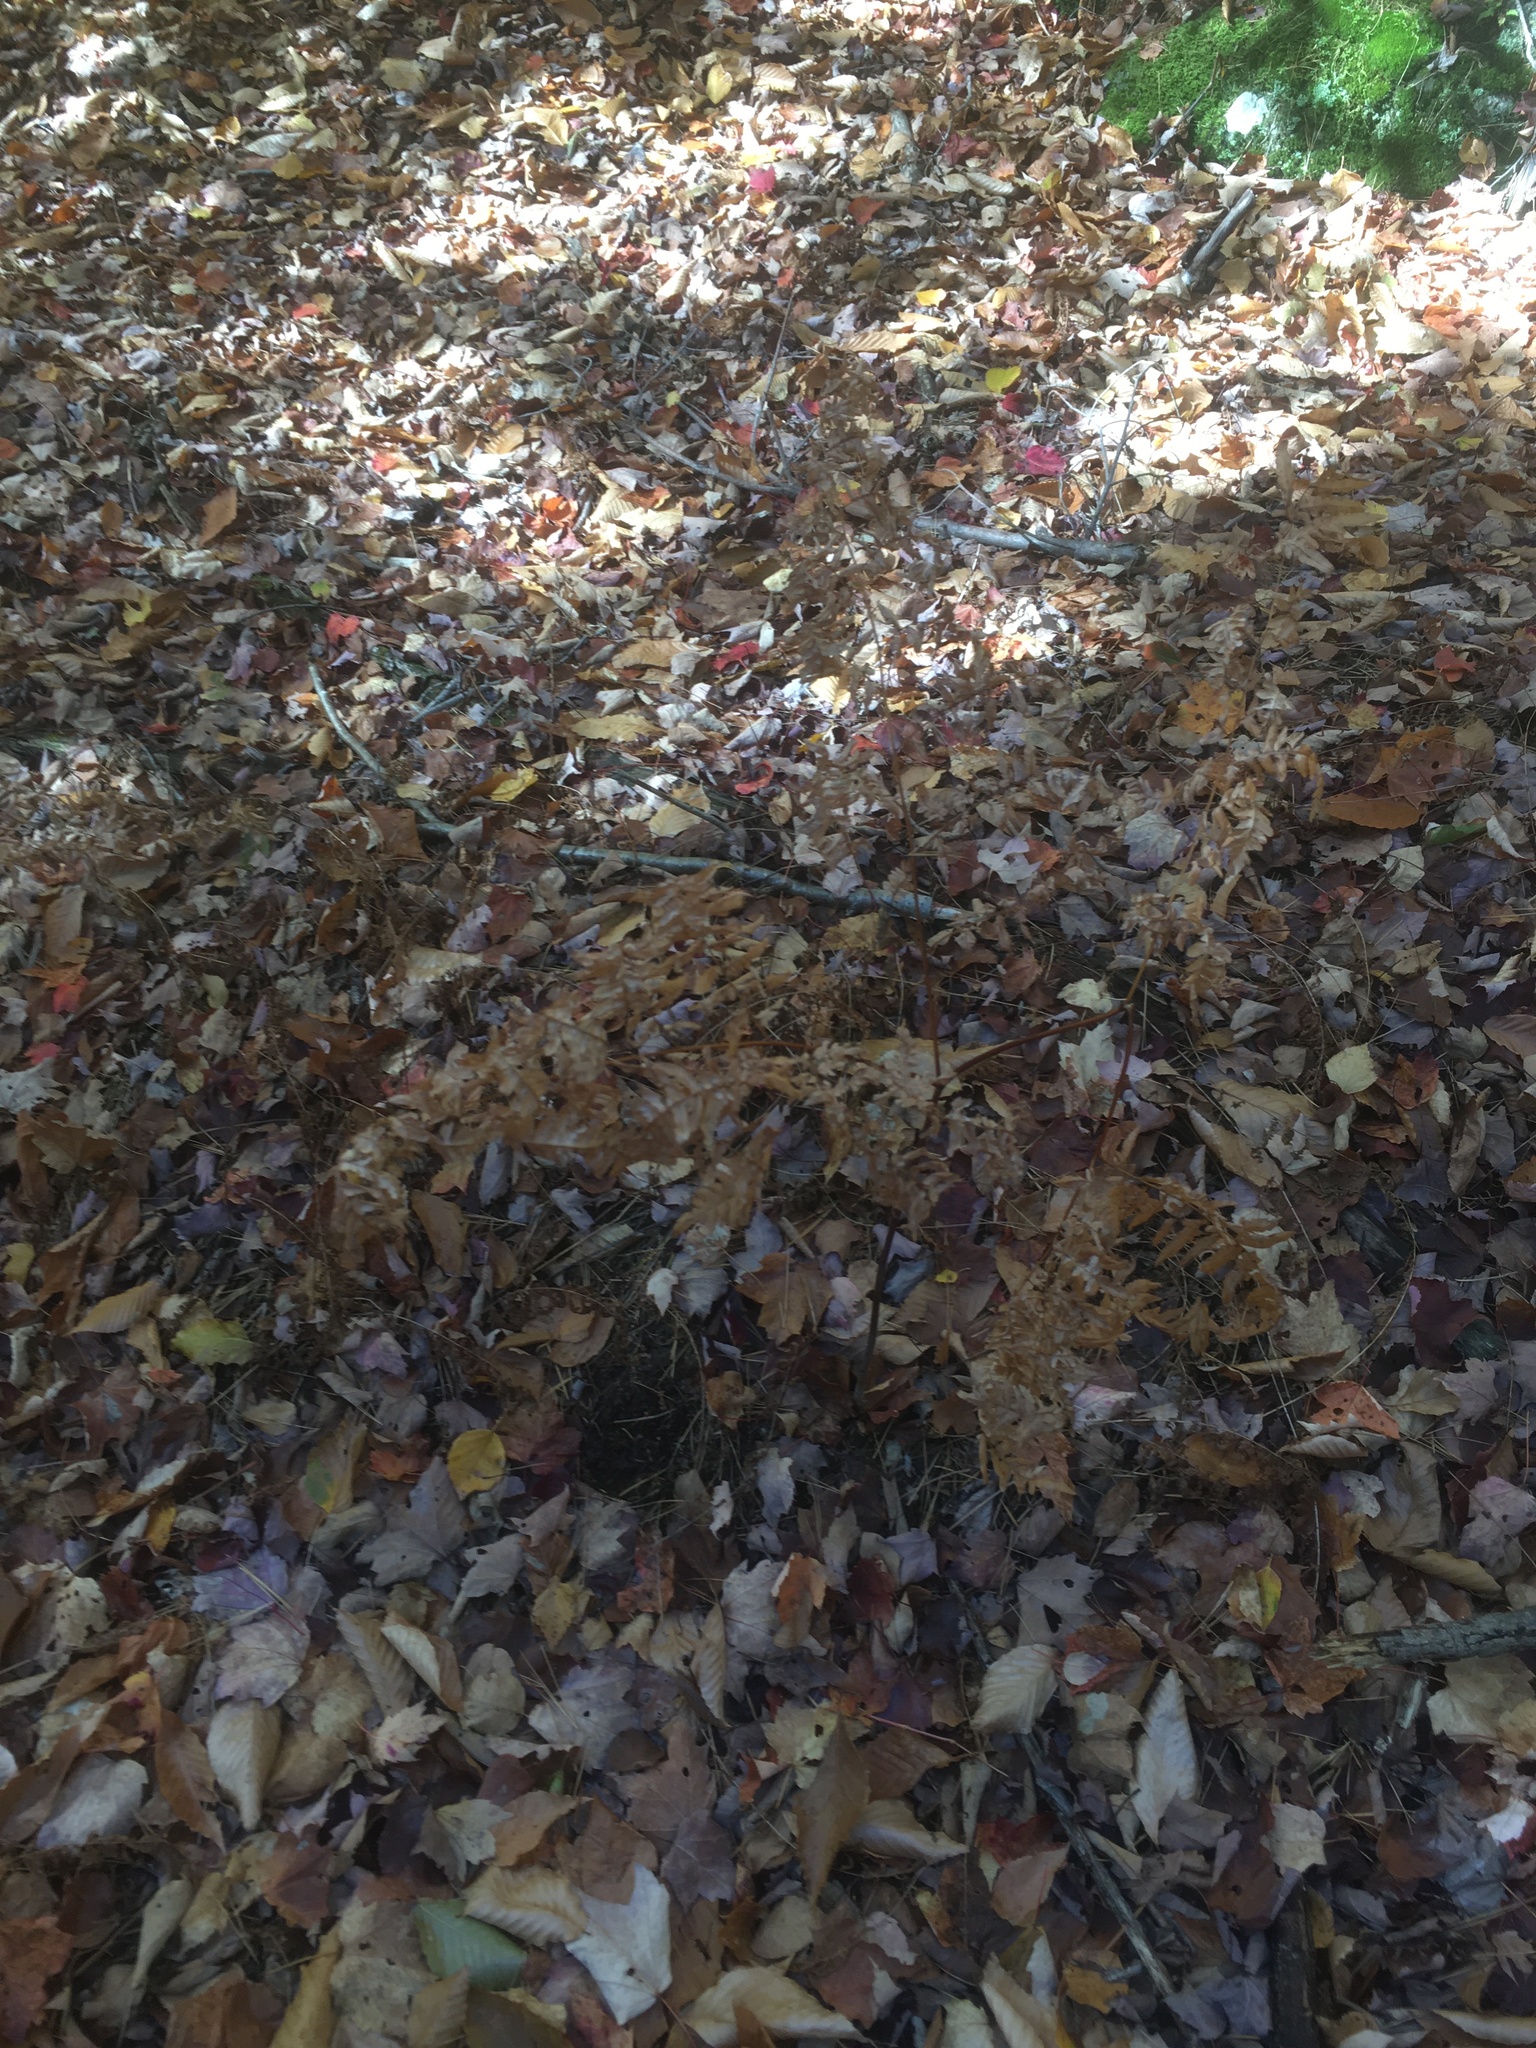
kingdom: Plantae
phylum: Tracheophyta
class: Polypodiopsida
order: Polypodiales
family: Dennstaedtiaceae
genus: Pteridium
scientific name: Pteridium aquilinum
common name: Bracken
